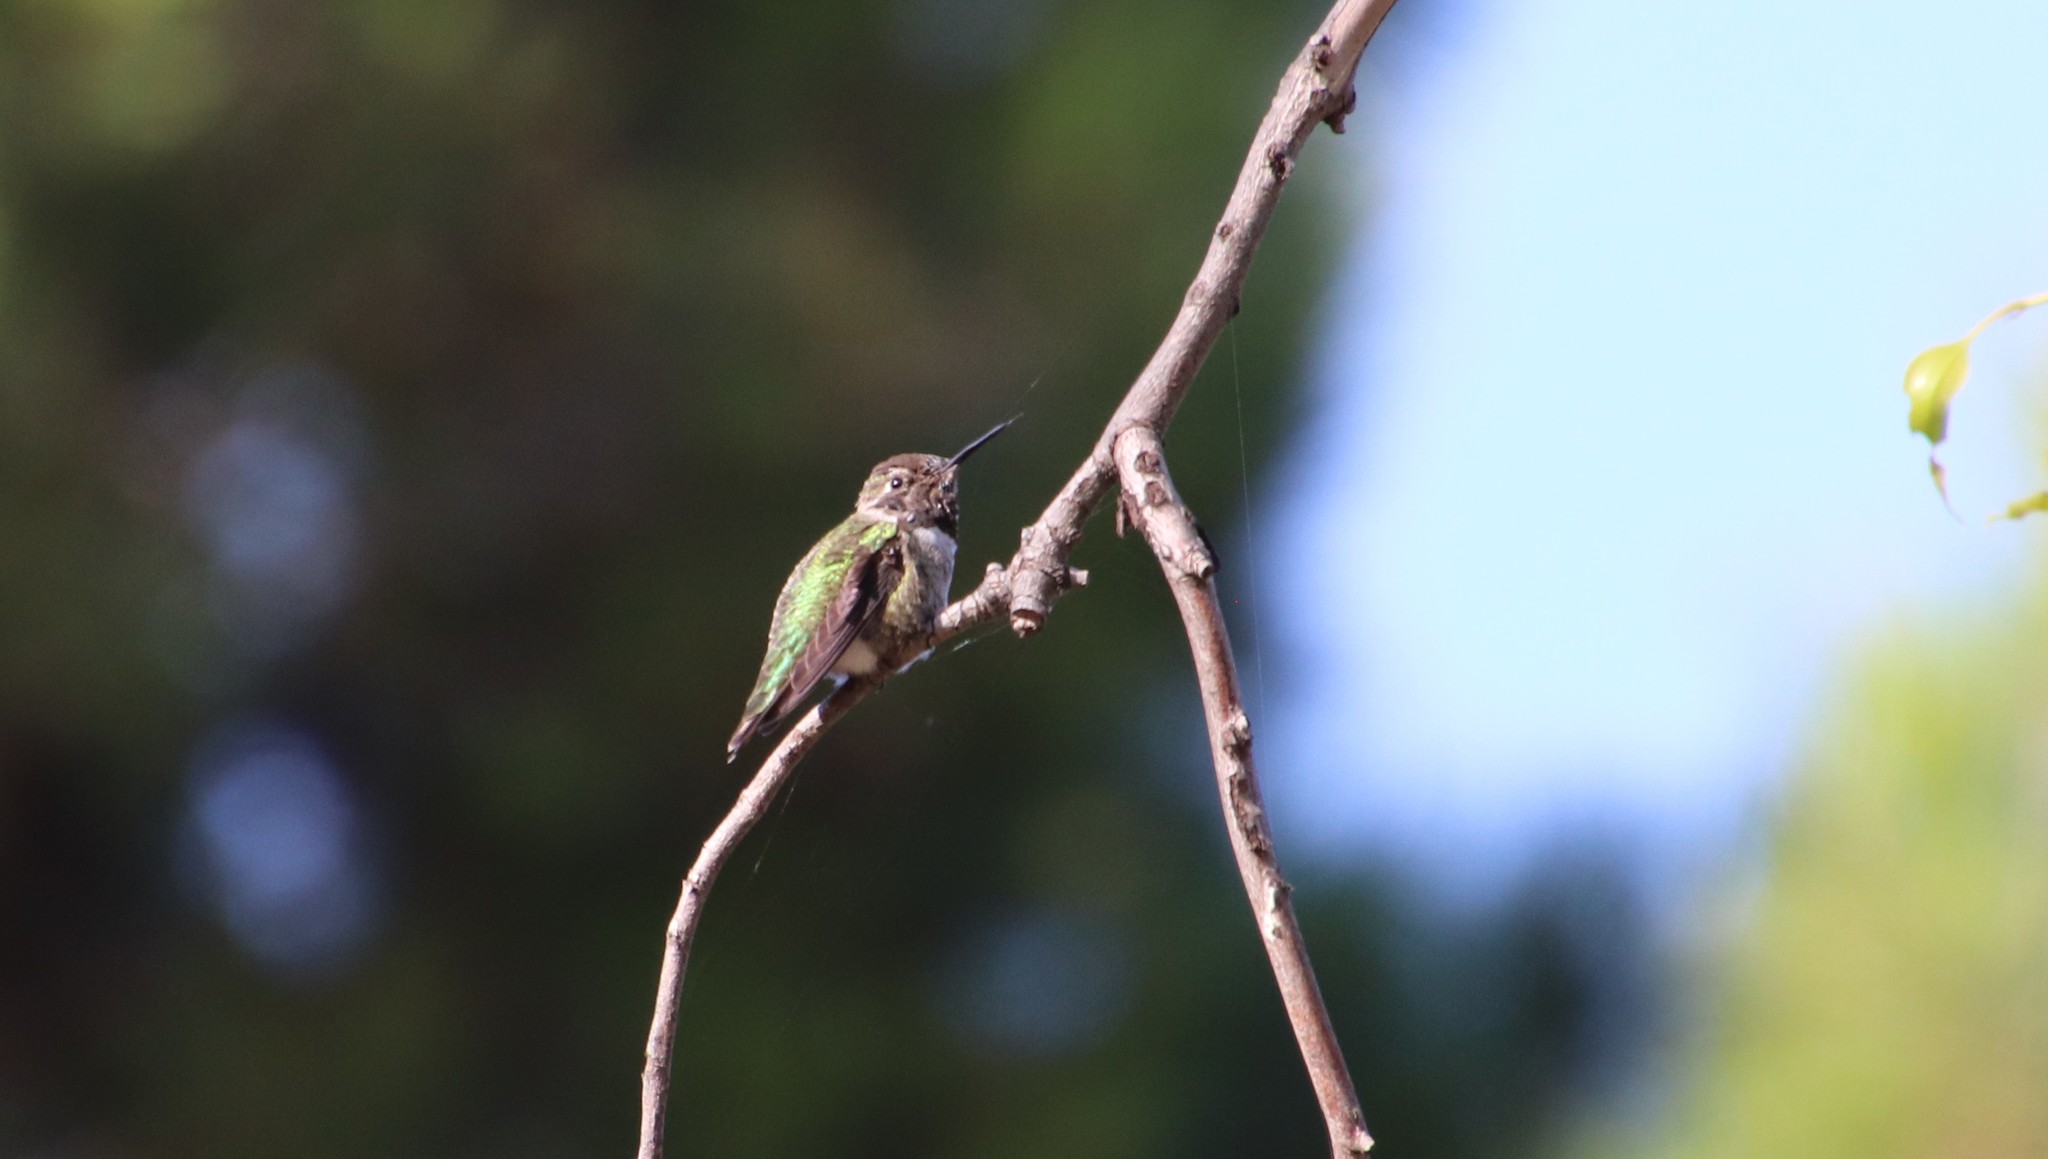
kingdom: Animalia
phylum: Chordata
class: Aves
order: Apodiformes
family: Trochilidae
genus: Calypte
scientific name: Calypte anna
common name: Anna's hummingbird
